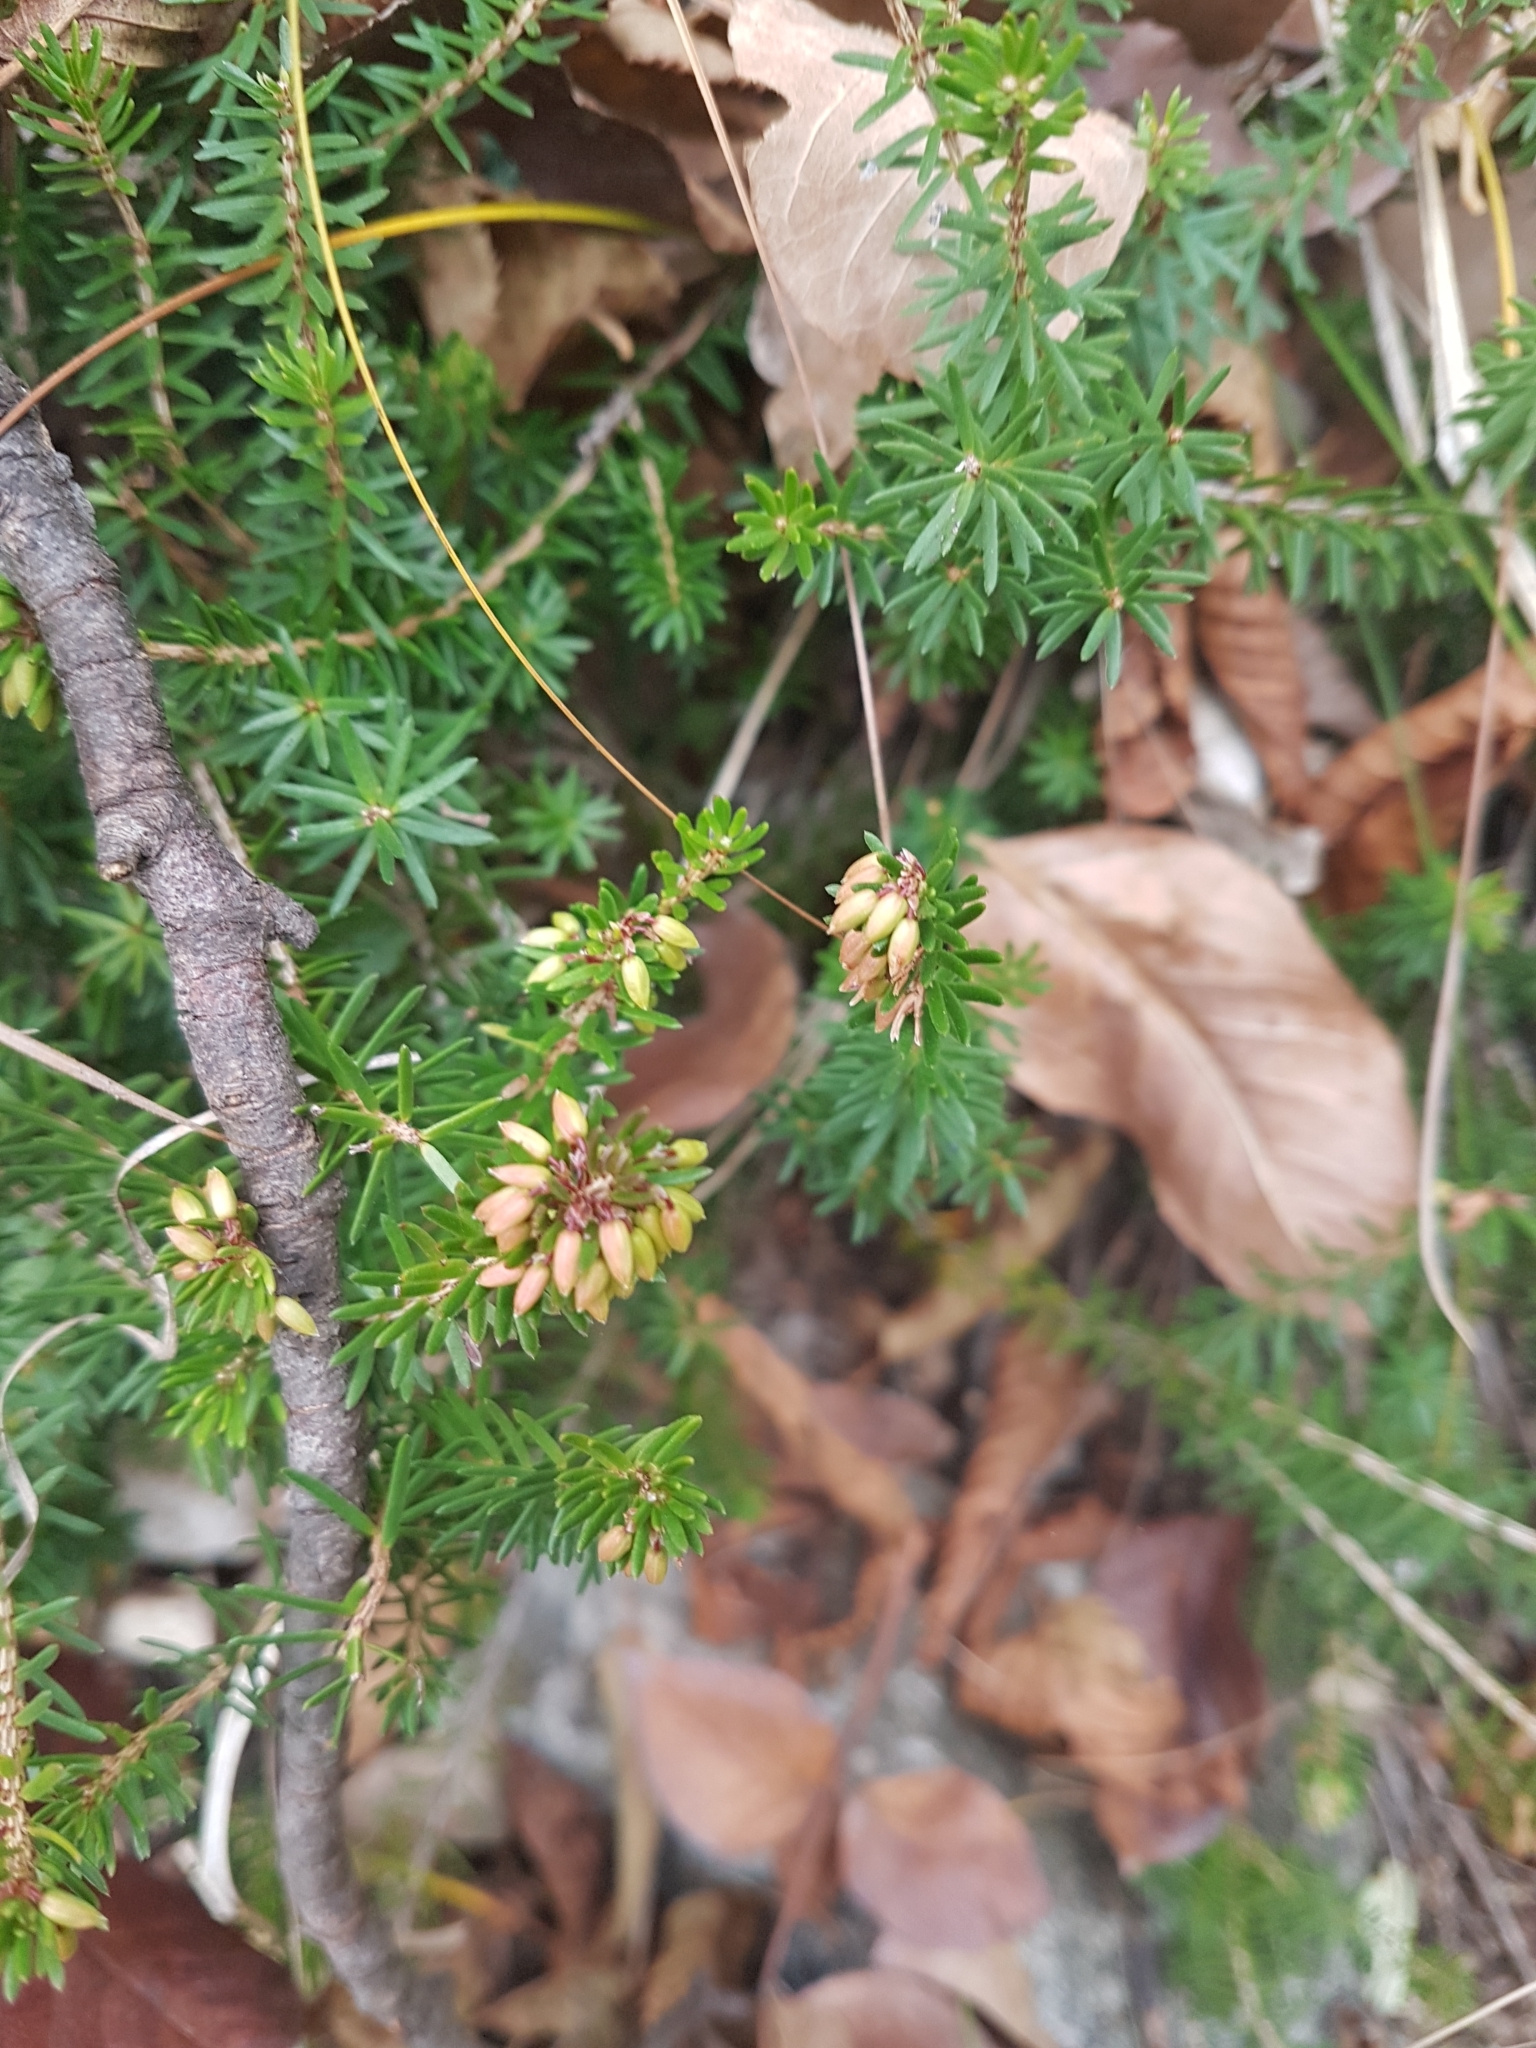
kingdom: Plantae
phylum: Tracheophyta
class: Magnoliopsida
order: Ericales
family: Ericaceae
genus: Erica
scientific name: Erica carnea
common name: Winter heath
